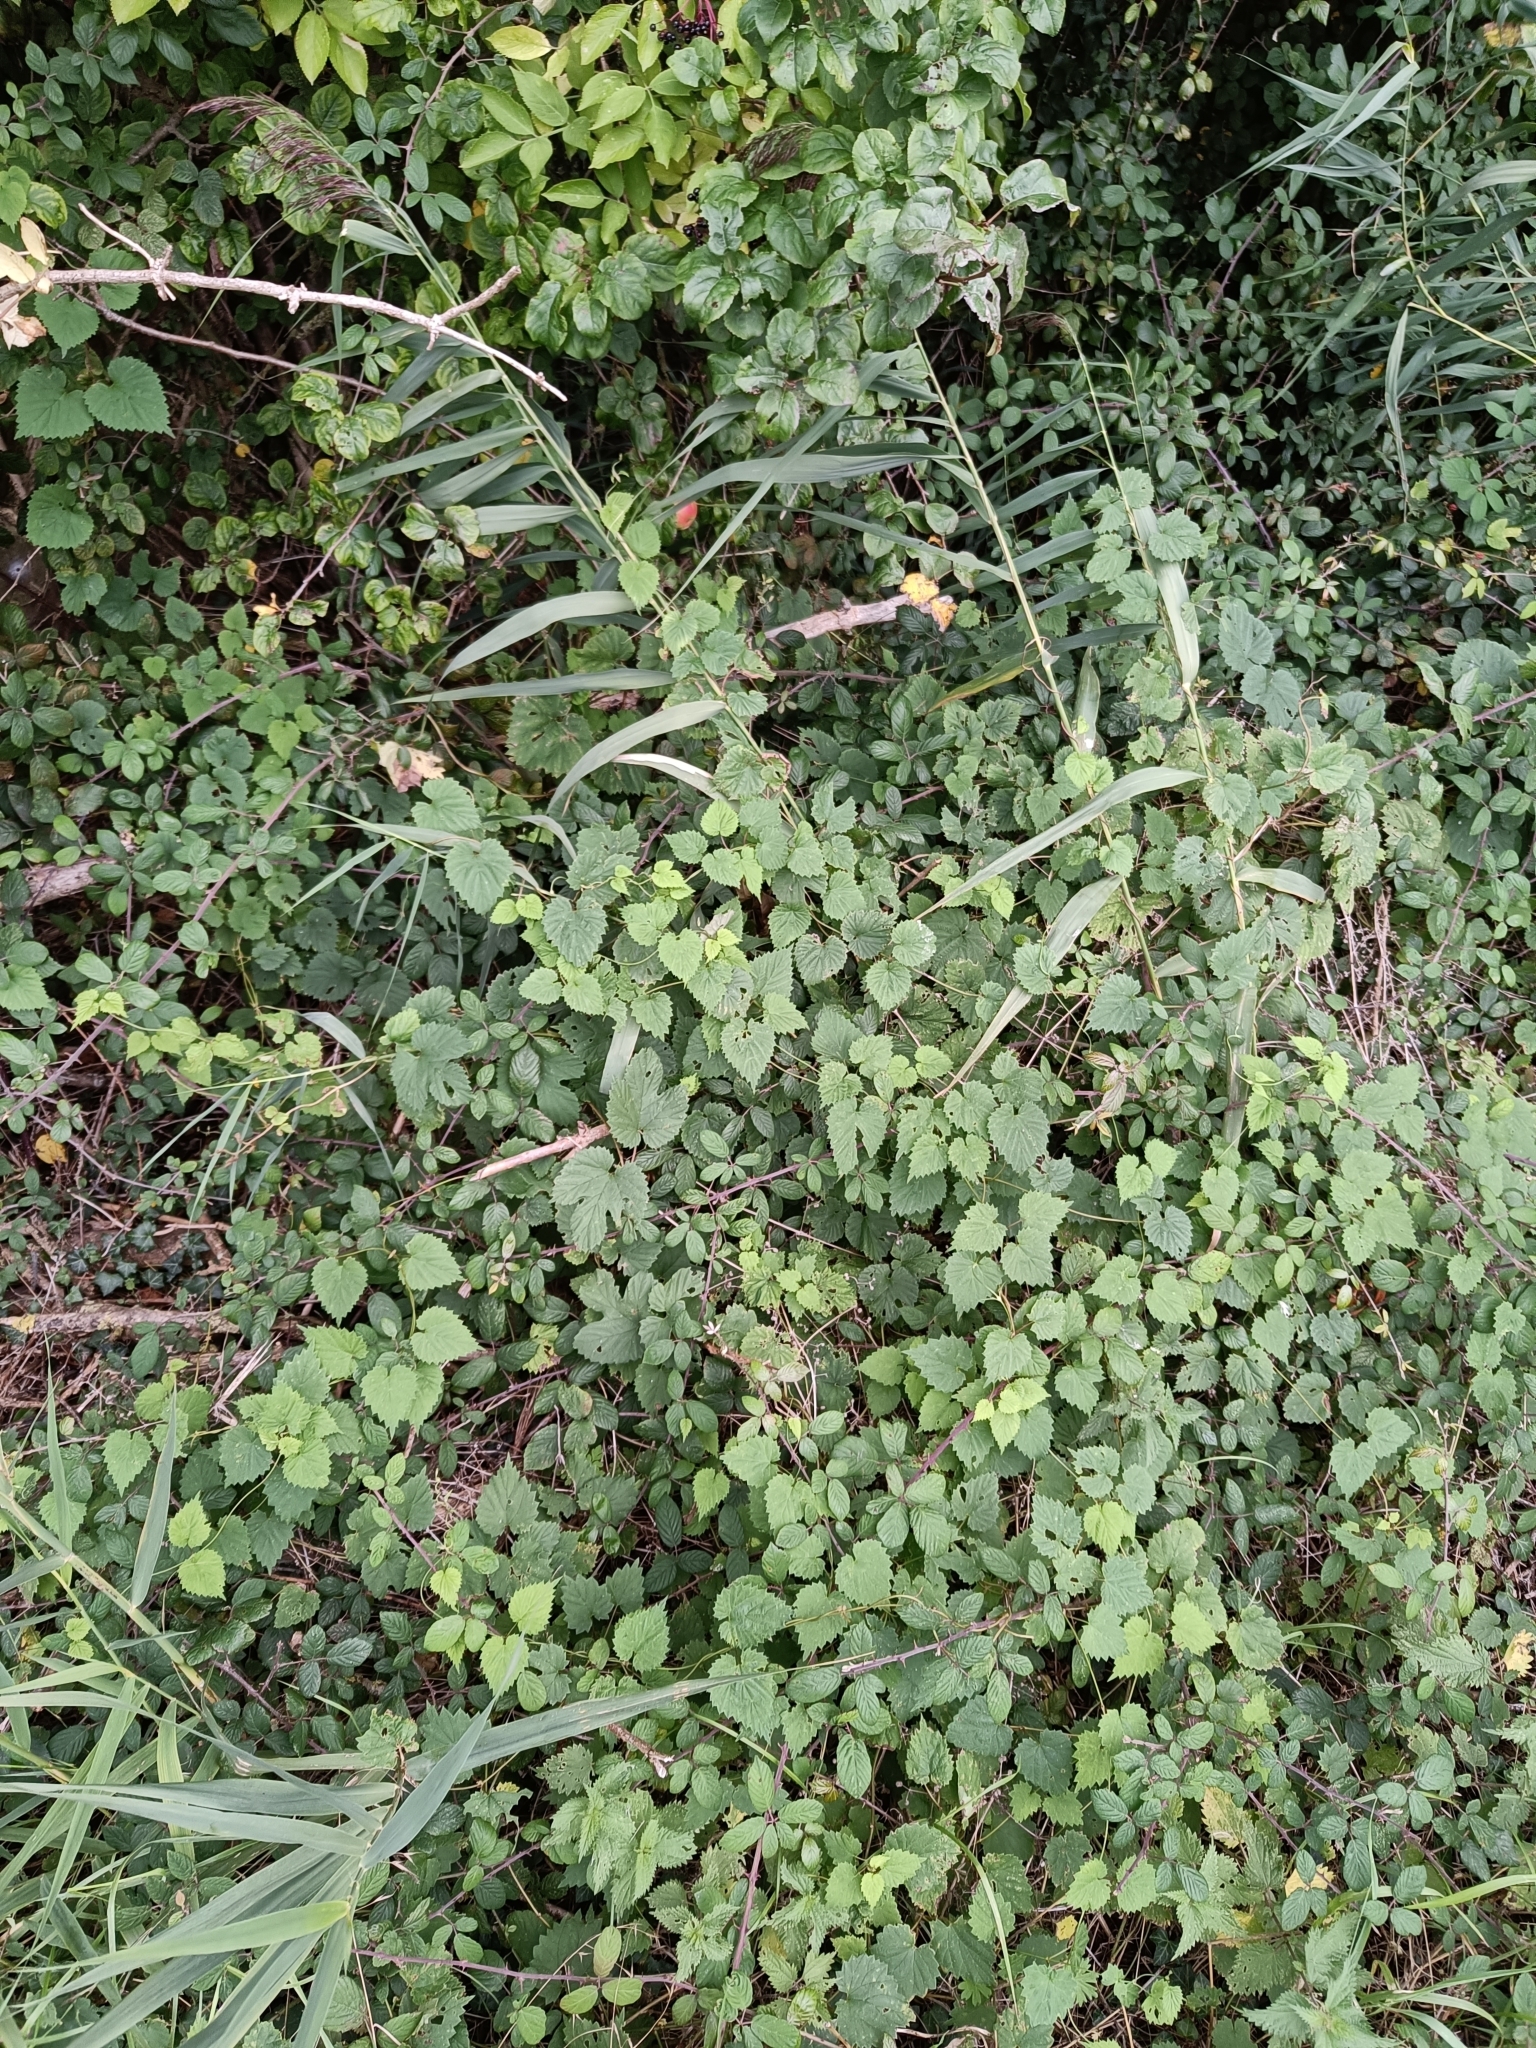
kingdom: Plantae
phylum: Tracheophyta
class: Magnoliopsida
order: Rosales
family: Cannabaceae
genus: Humulus
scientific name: Humulus lupulus
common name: Hop
